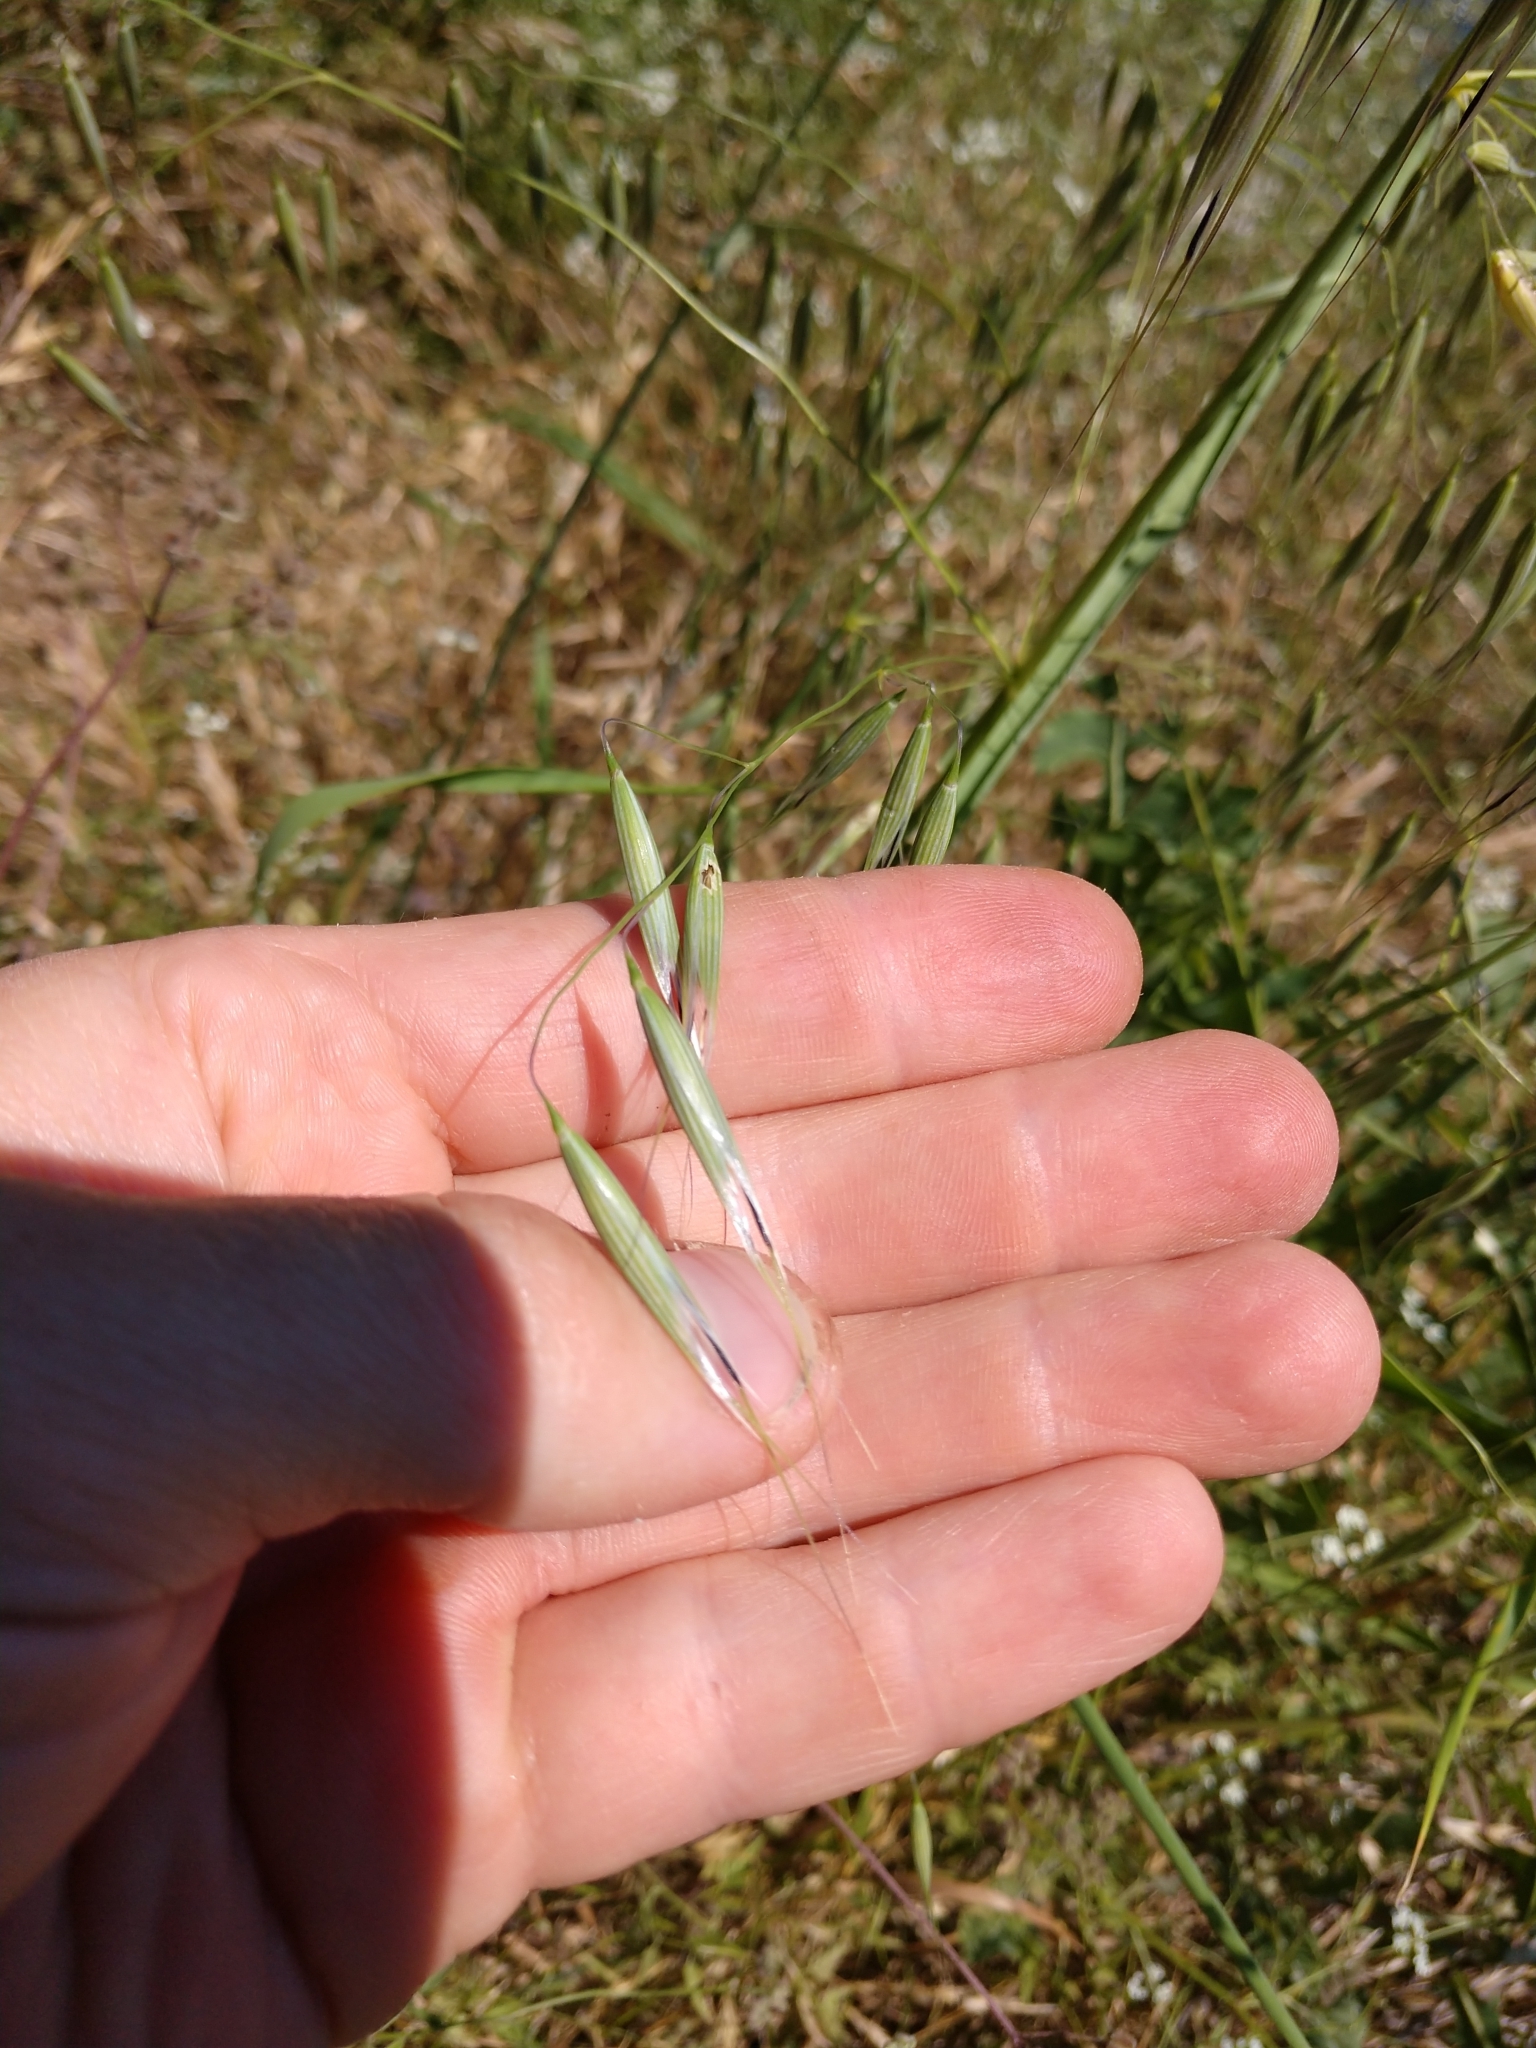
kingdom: Plantae
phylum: Tracheophyta
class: Liliopsida
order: Poales
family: Poaceae
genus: Avena
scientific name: Avena fatua
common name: Wild oat
